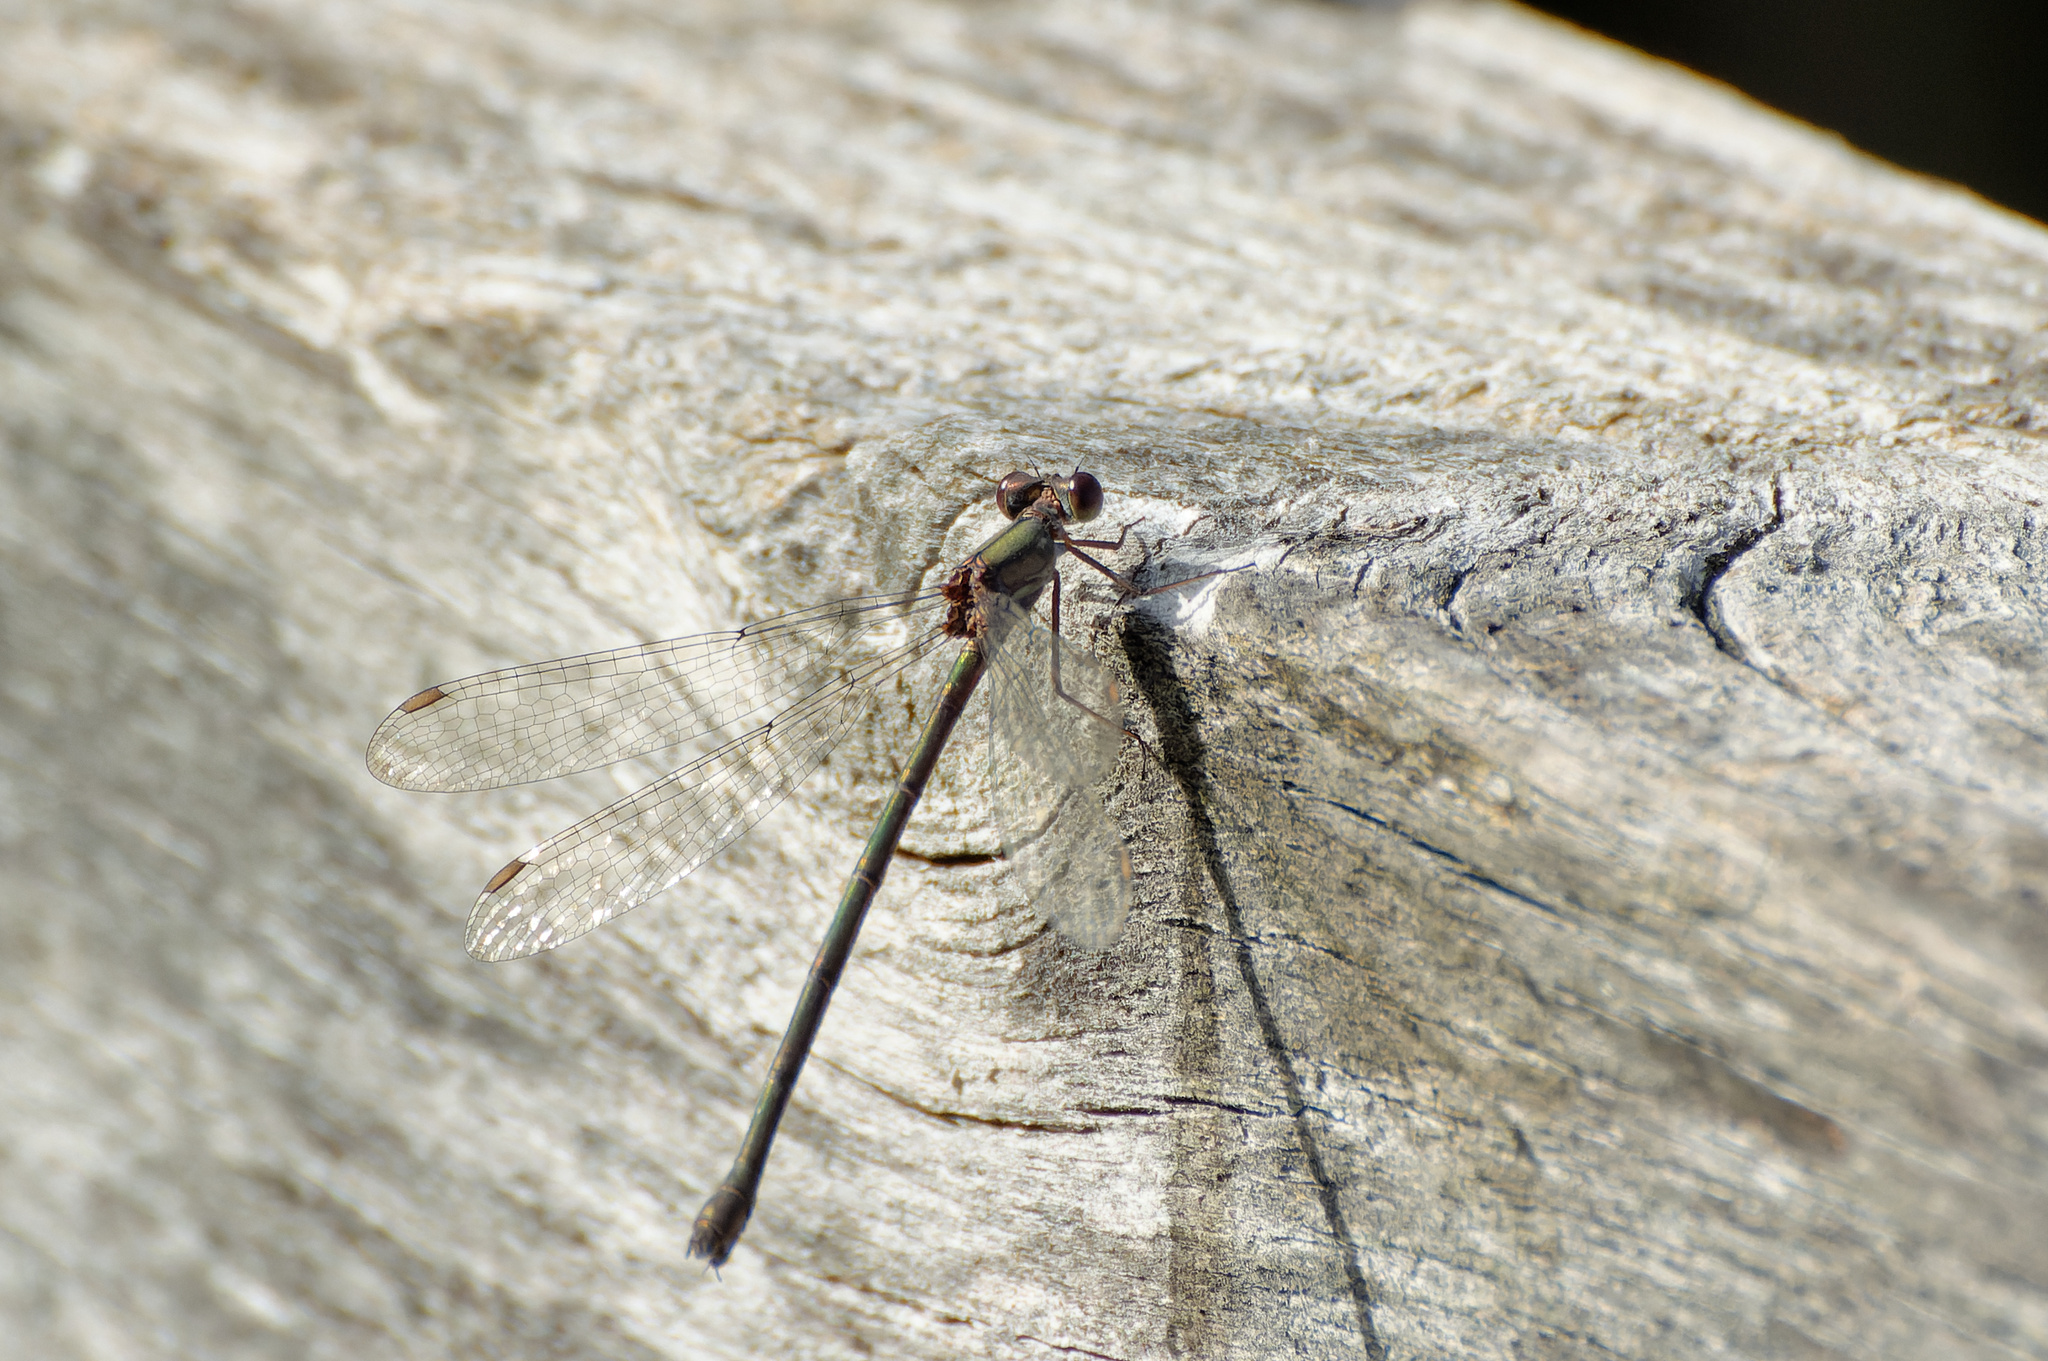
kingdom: Animalia
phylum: Arthropoda
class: Insecta
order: Odonata
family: Lestidae
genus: Chalcolestes
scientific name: Chalcolestes viridis
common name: Green emerald damselfly
